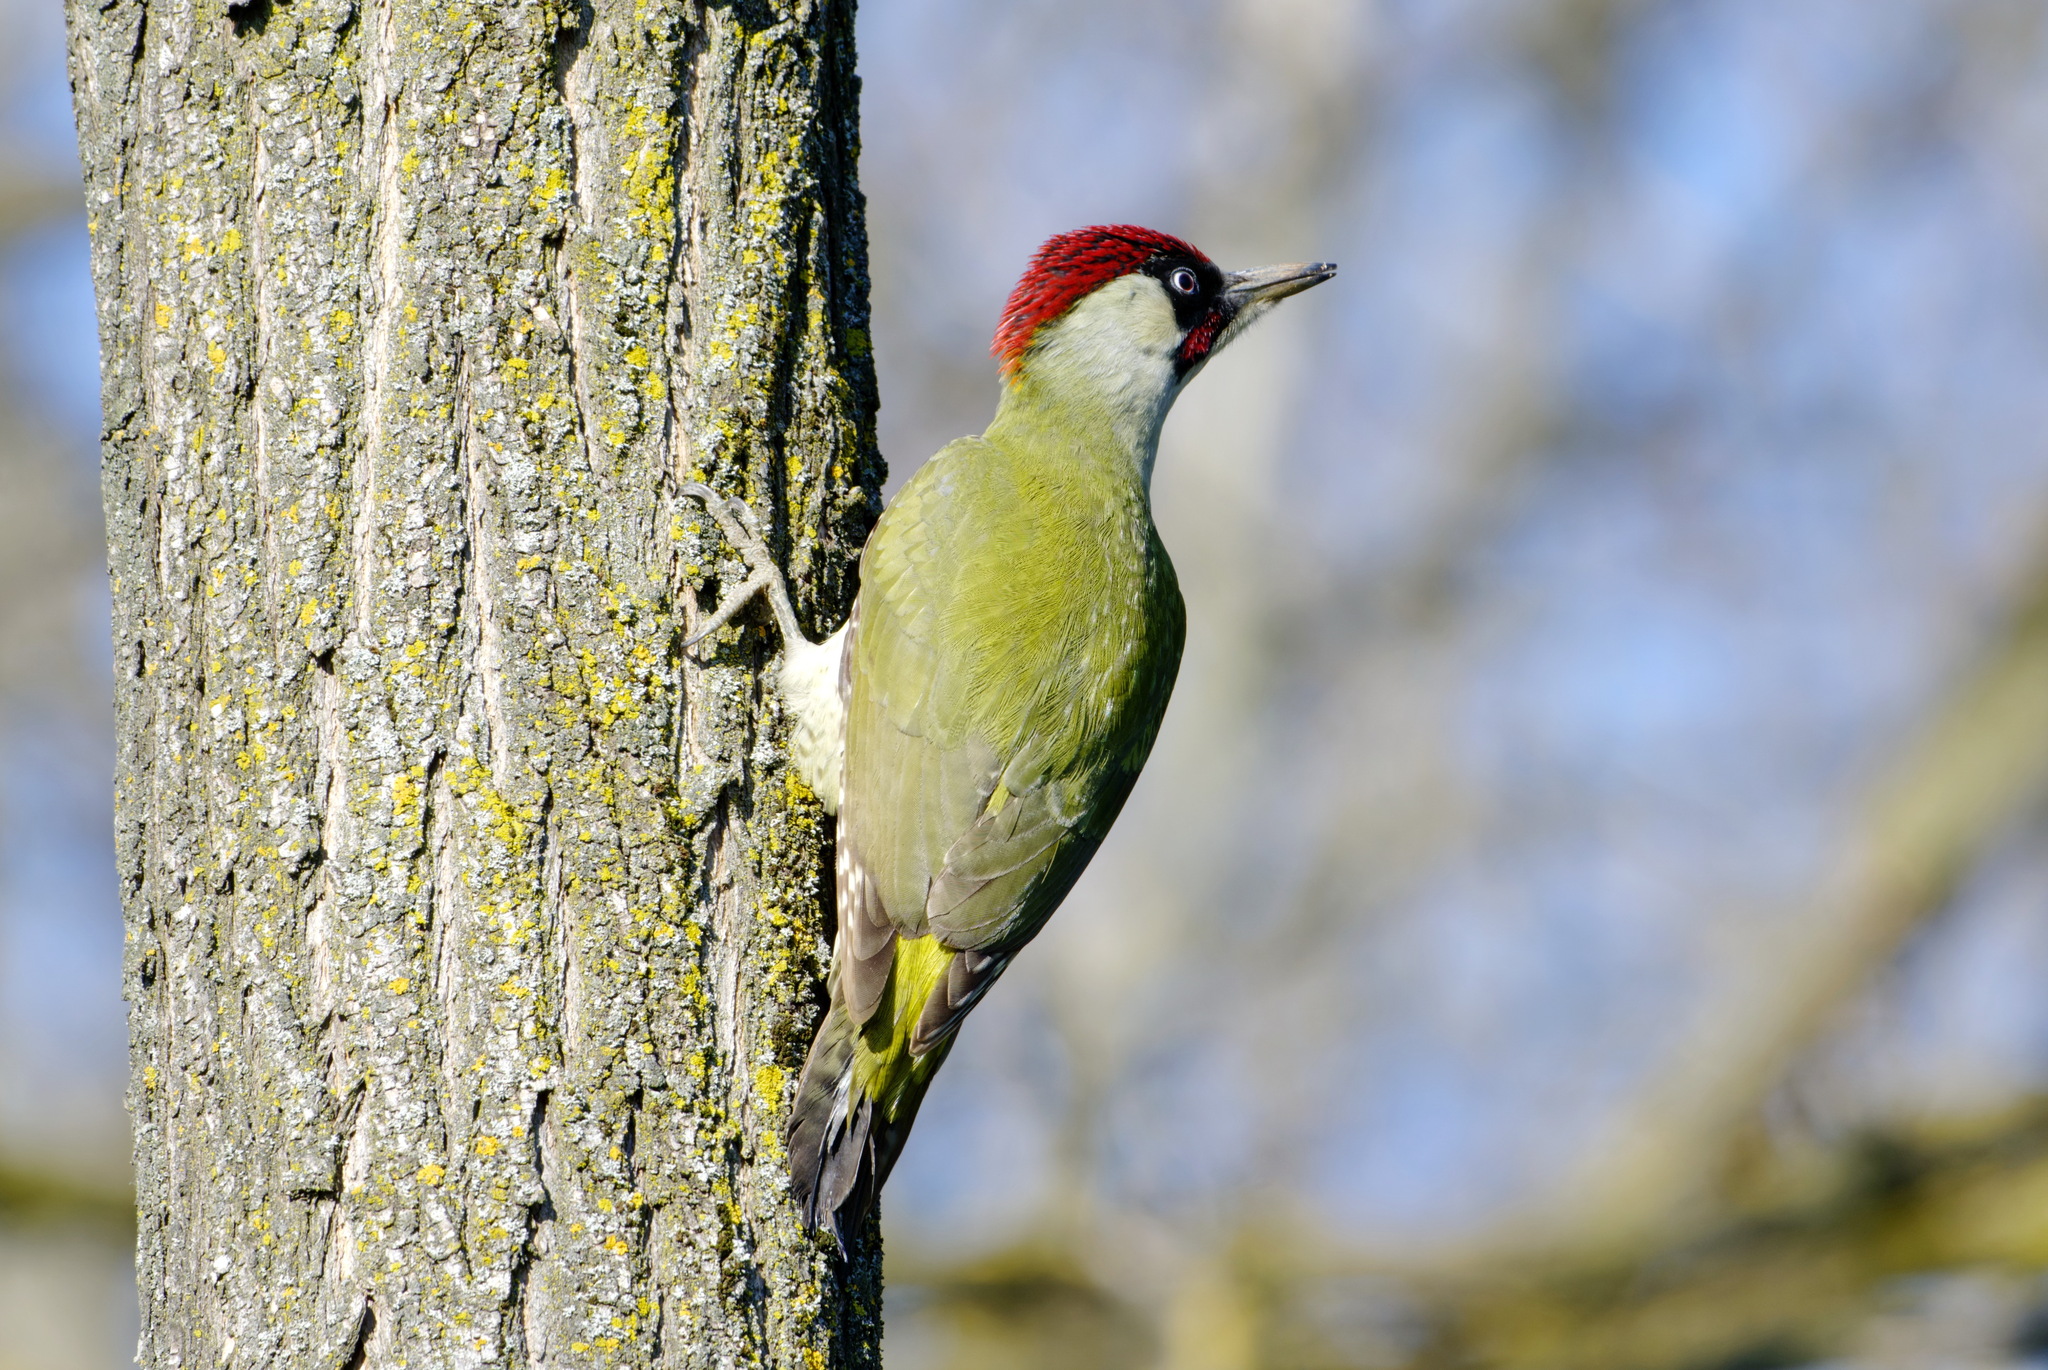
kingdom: Animalia
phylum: Chordata
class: Aves
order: Piciformes
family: Picidae
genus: Picus
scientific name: Picus viridis
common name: European green woodpecker
